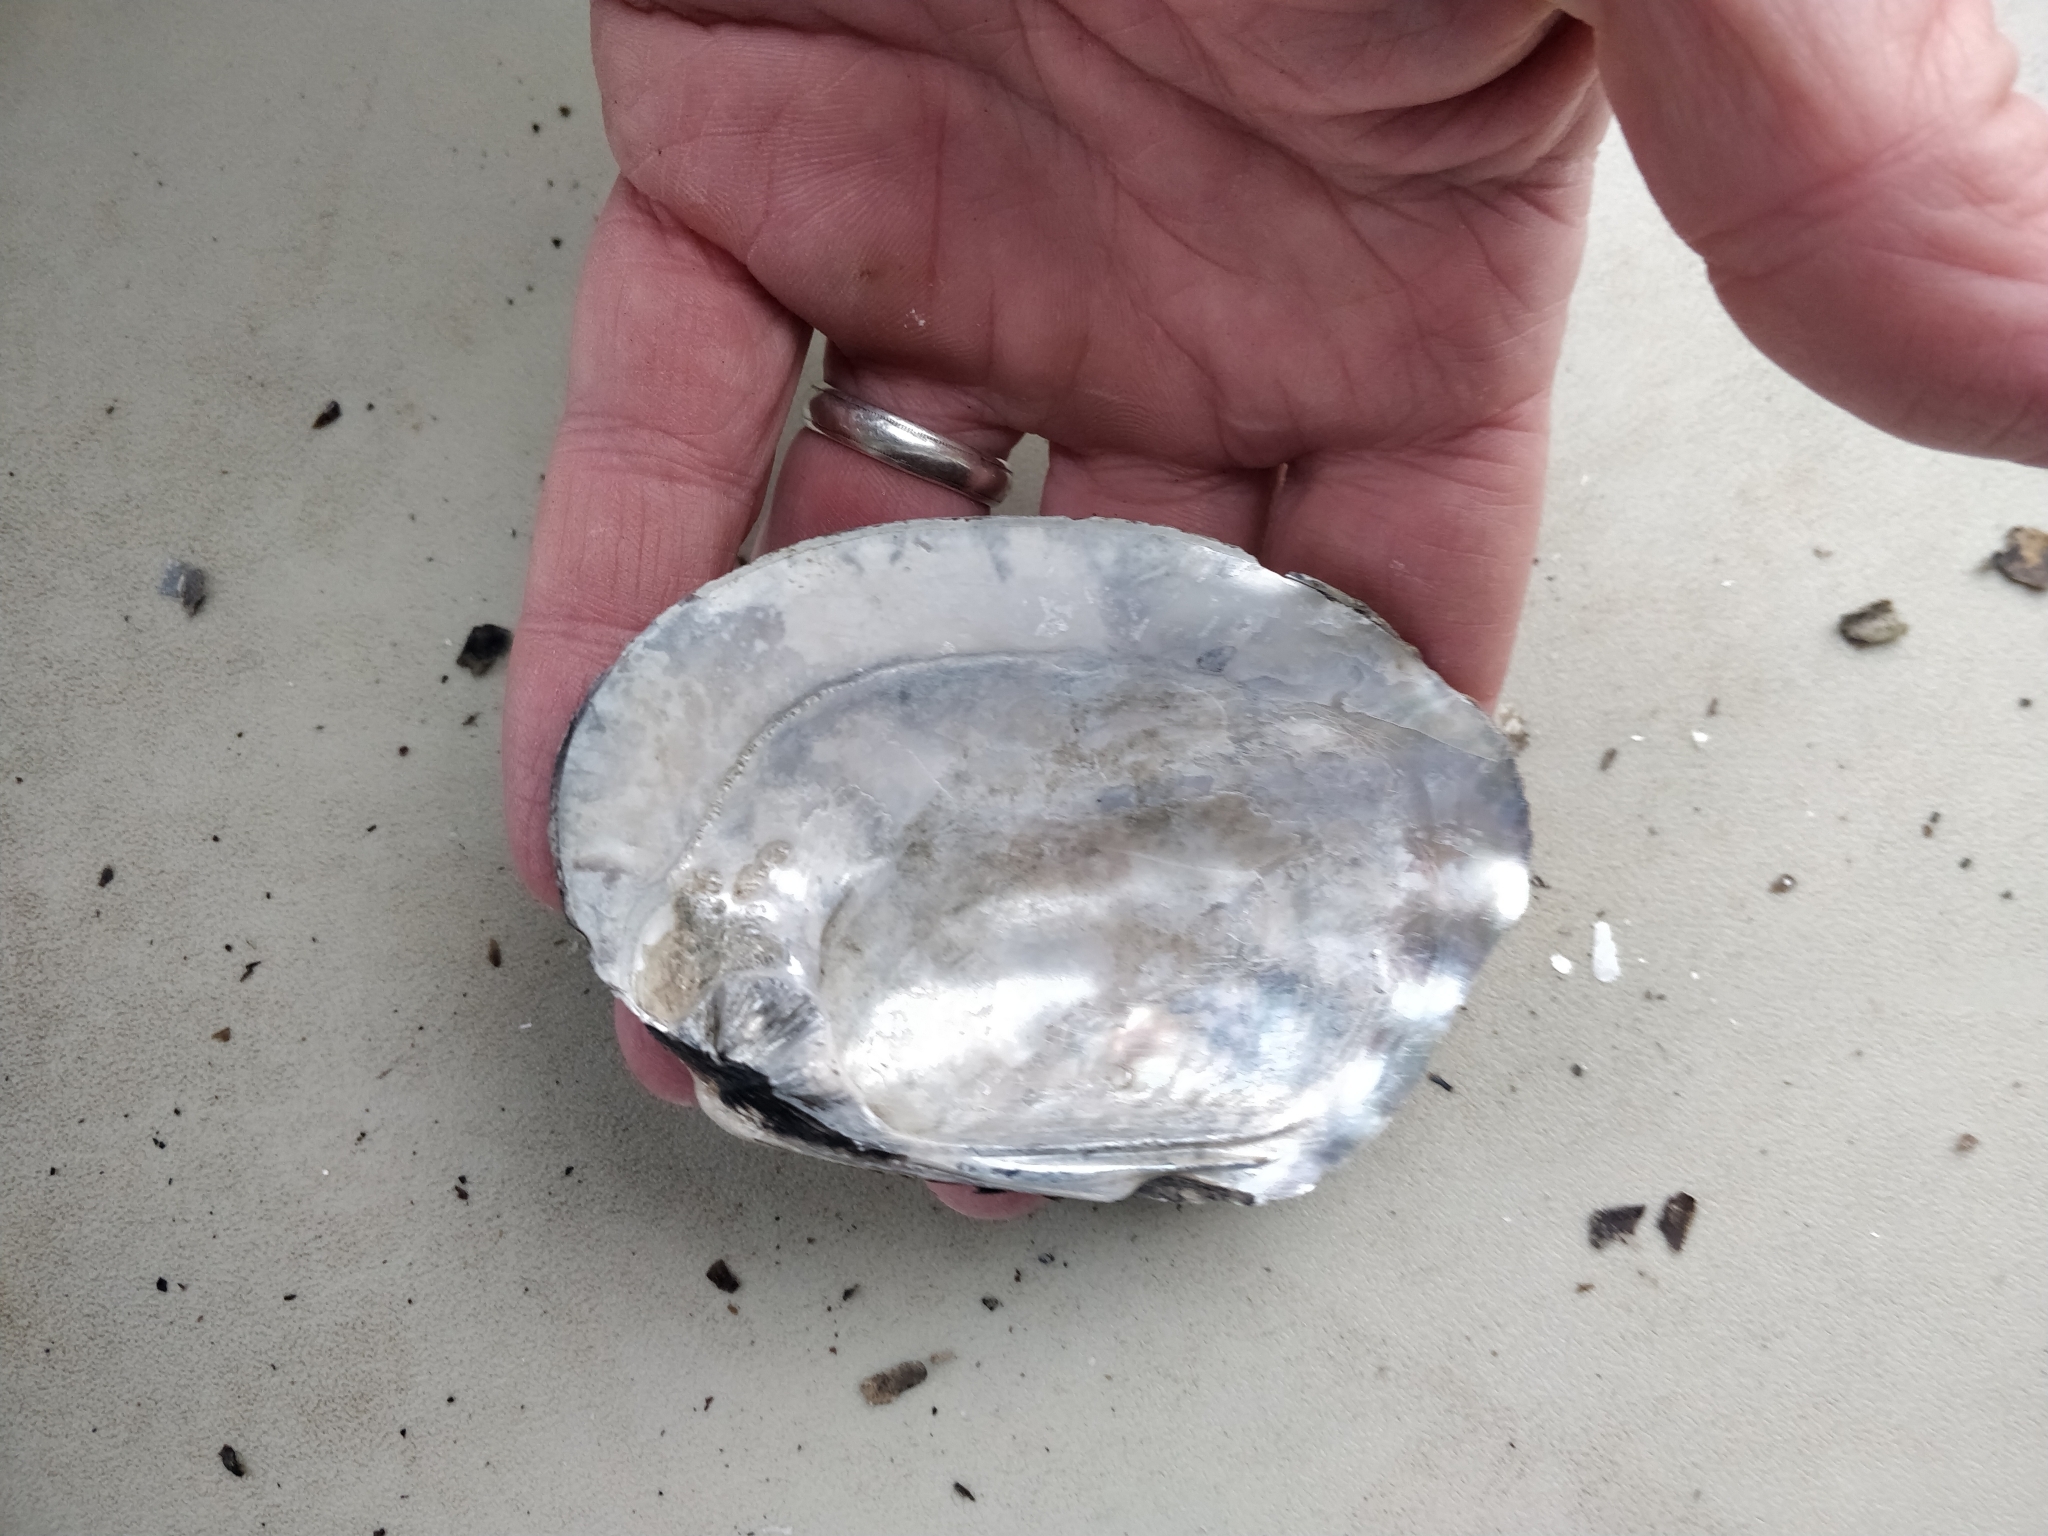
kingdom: Animalia
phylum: Mollusca
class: Bivalvia
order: Unionida
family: Unionidae
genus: Amblema
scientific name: Amblema plicata
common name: Threeridge
